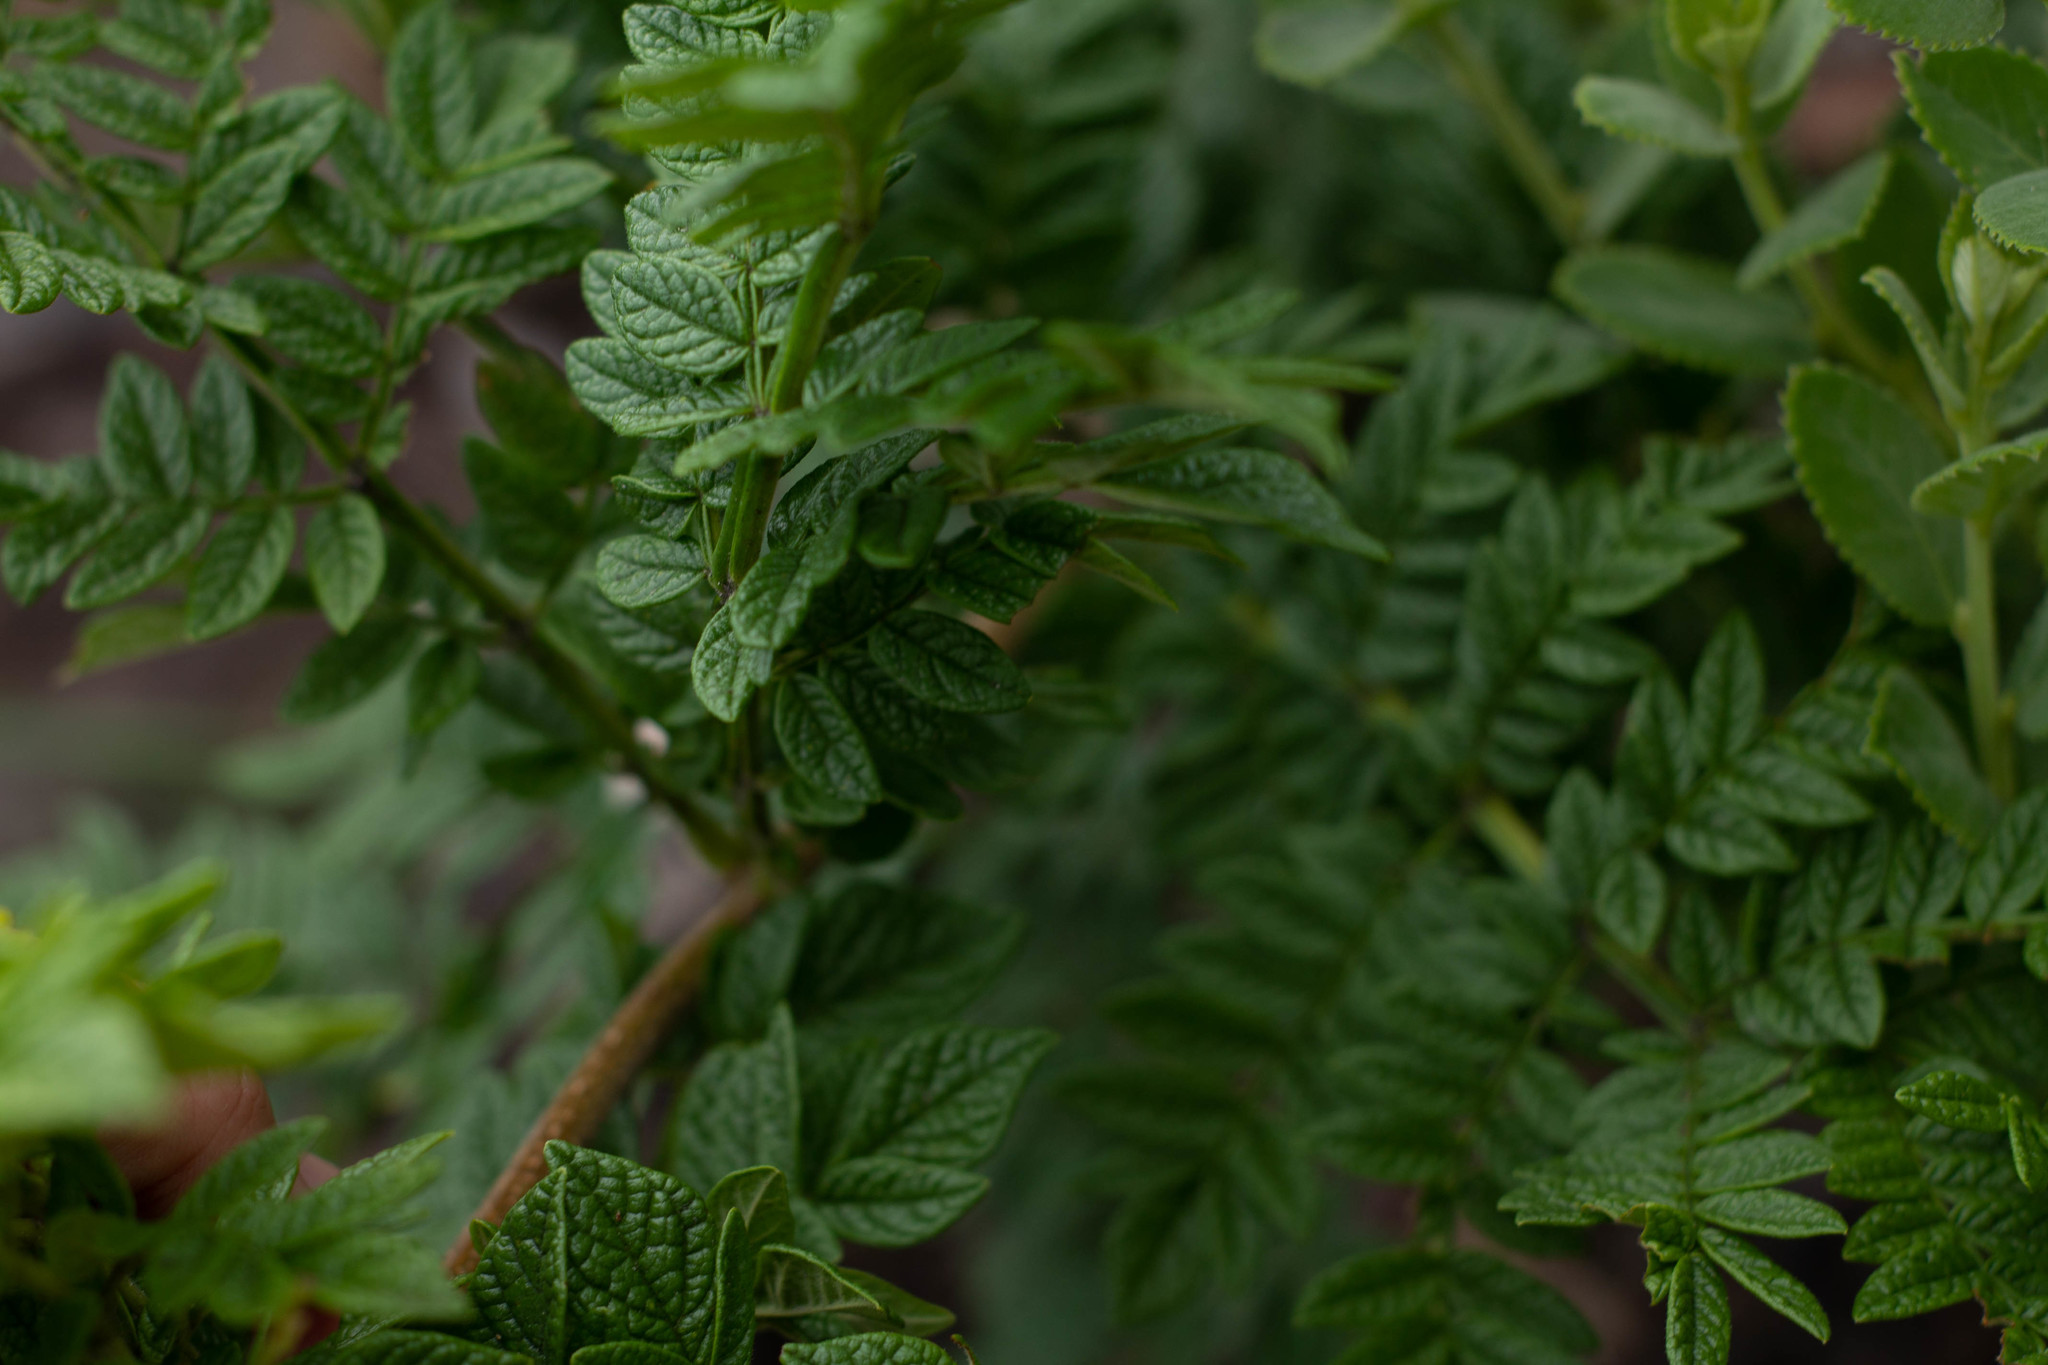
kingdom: Plantae
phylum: Tracheophyta
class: Magnoliopsida
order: Lamiales
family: Bignoniaceae
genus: Jacaranda
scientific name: Jacaranda ulei
